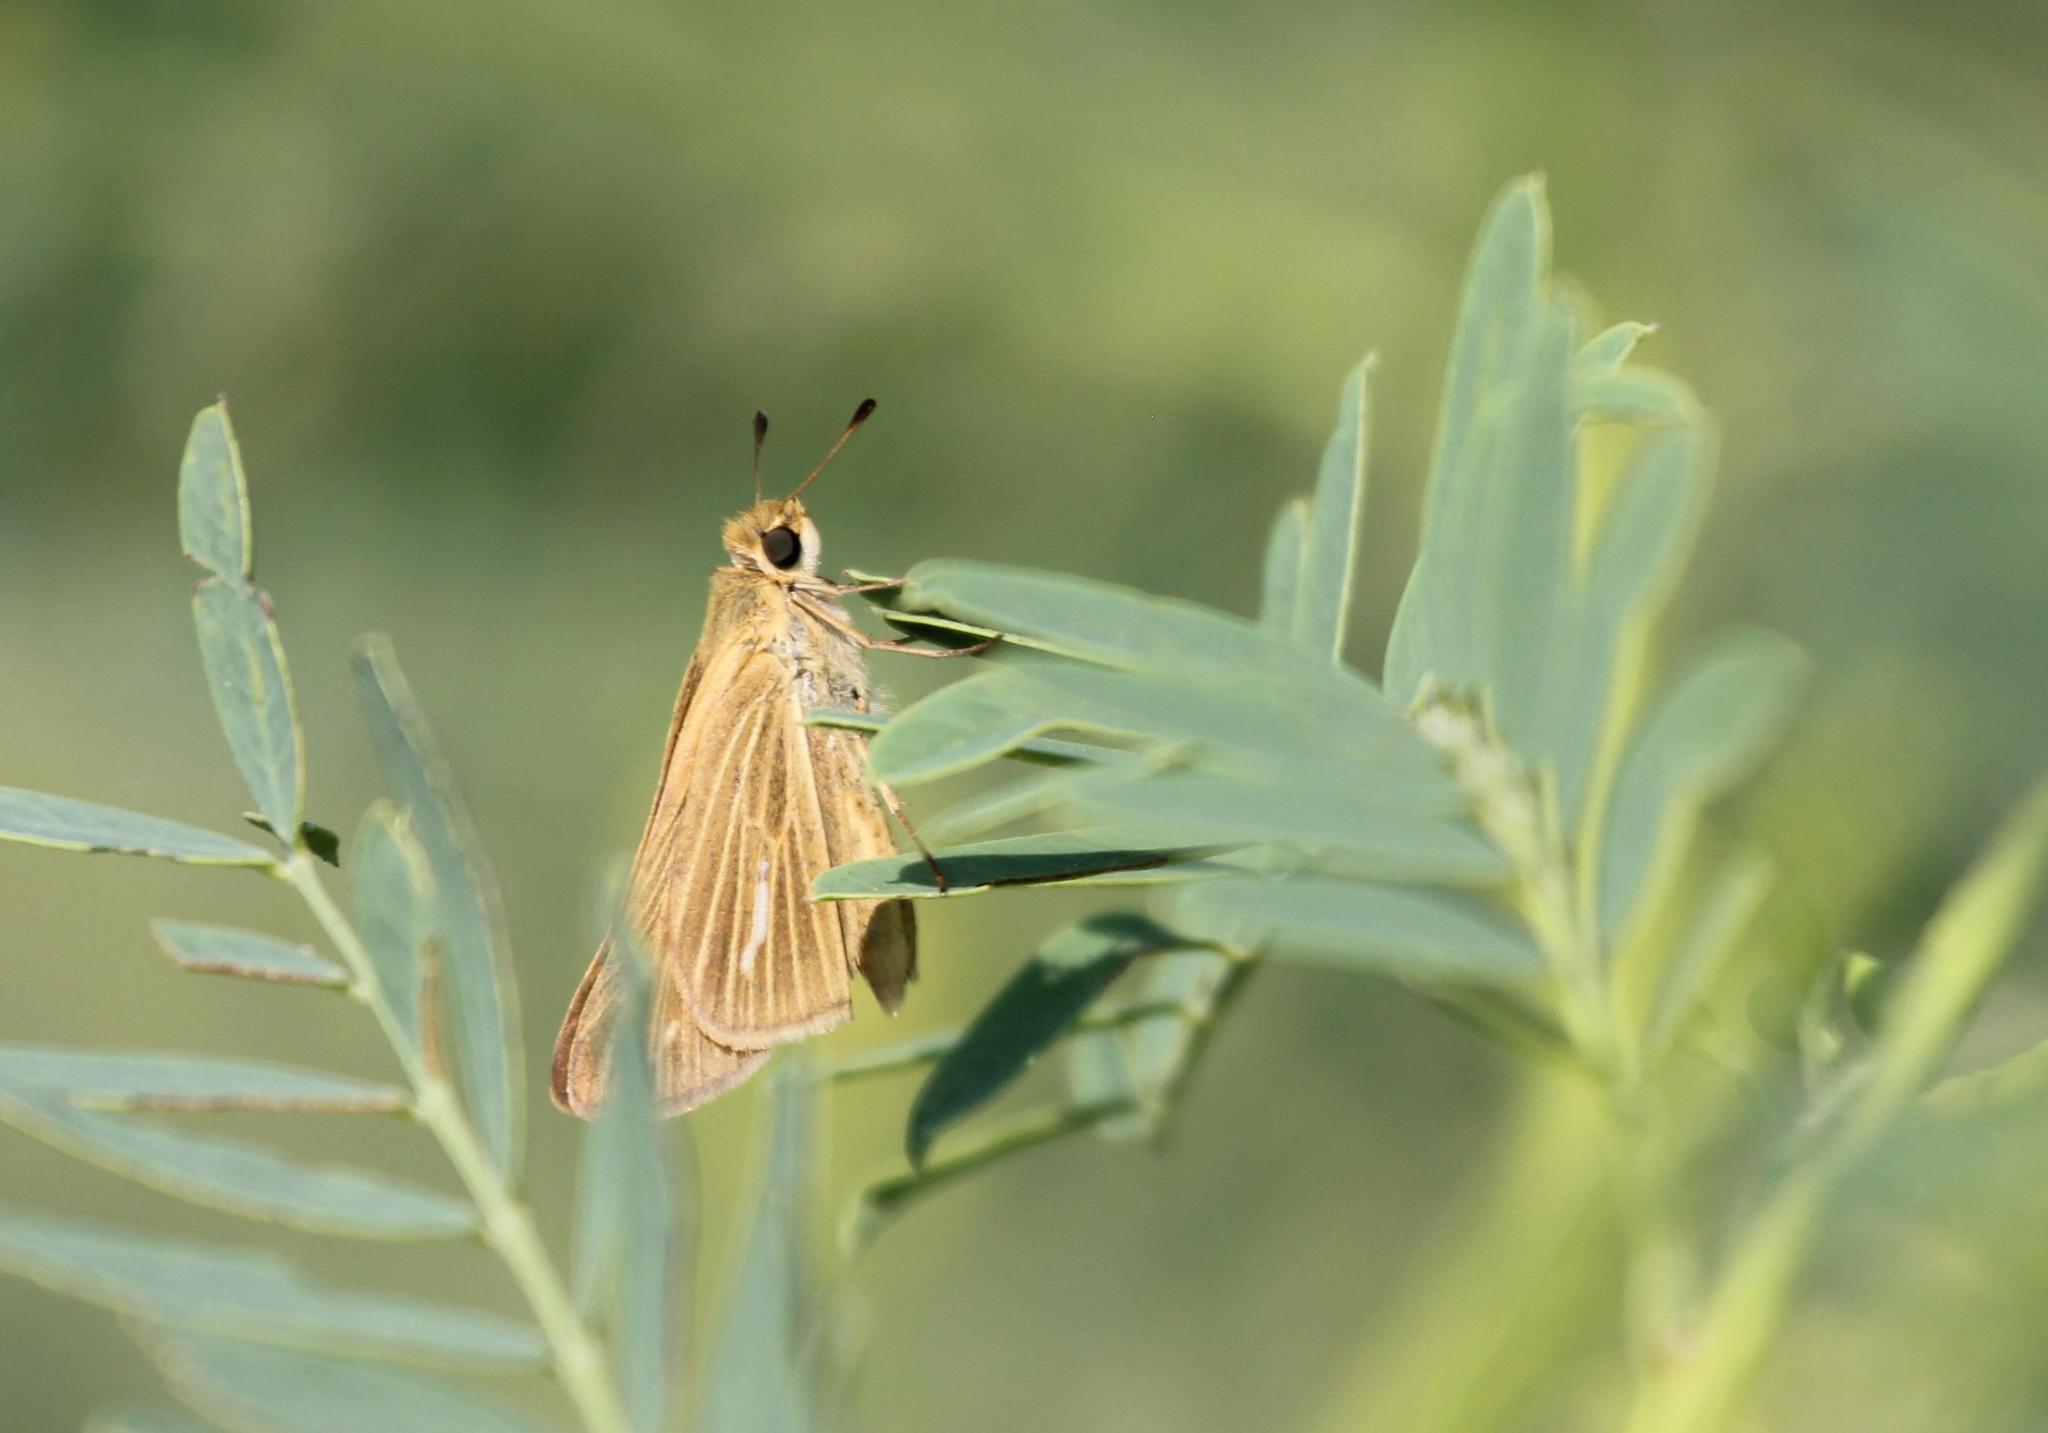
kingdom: Animalia
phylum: Arthropoda
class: Insecta
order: Lepidoptera
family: Hesperiidae
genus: Panoquina
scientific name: Panoquina panoquin
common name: Salt marsh skipper
